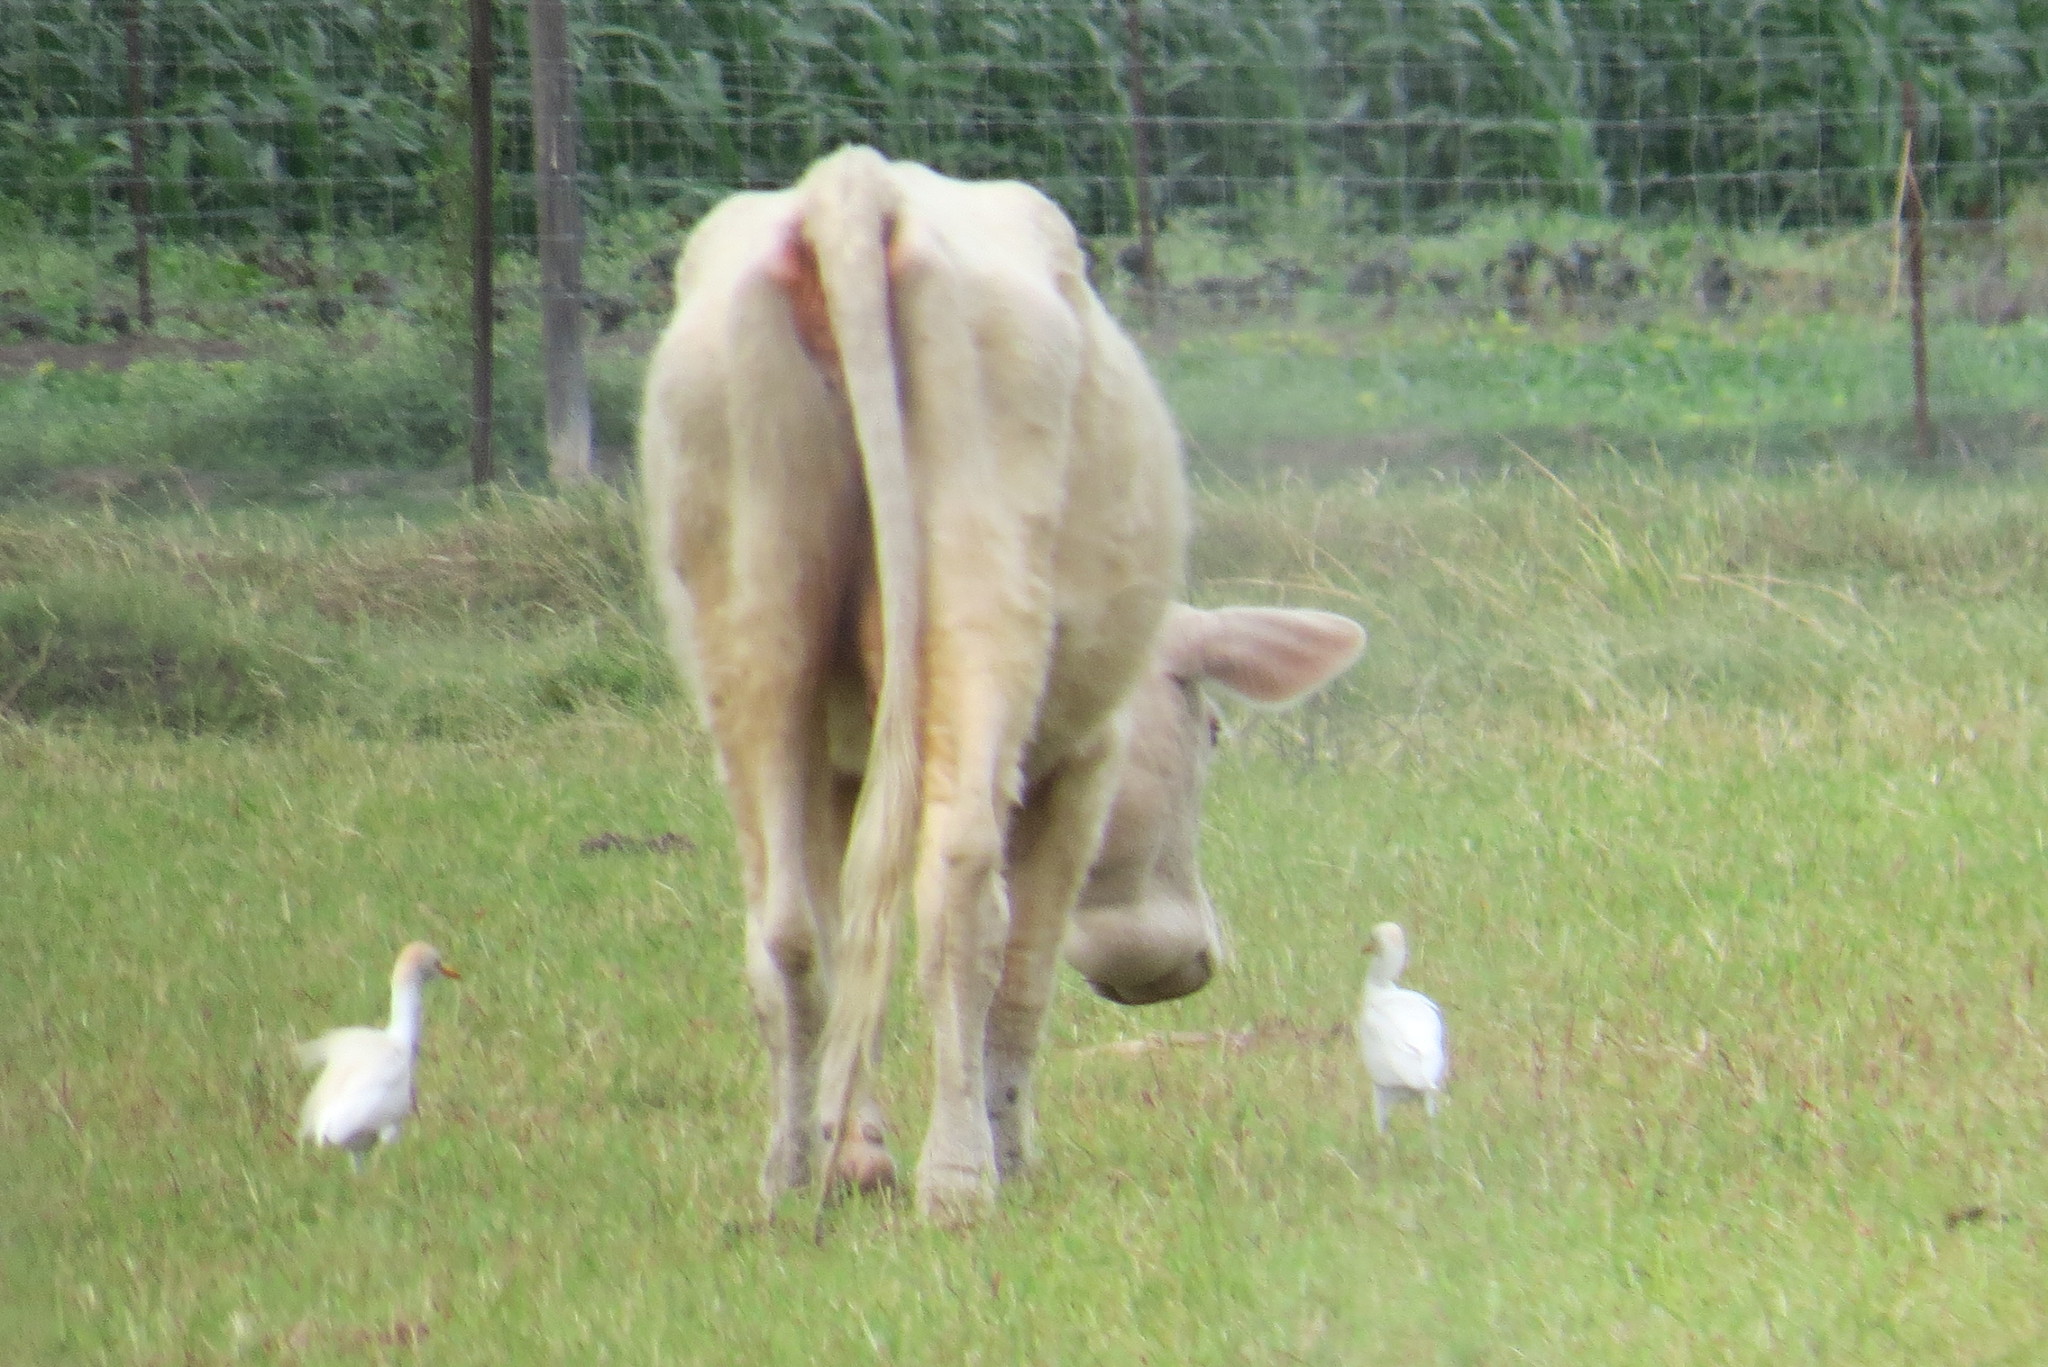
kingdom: Animalia
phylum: Chordata
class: Aves
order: Pelecaniformes
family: Ardeidae
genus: Bubulcus
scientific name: Bubulcus ibis
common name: Cattle egret
